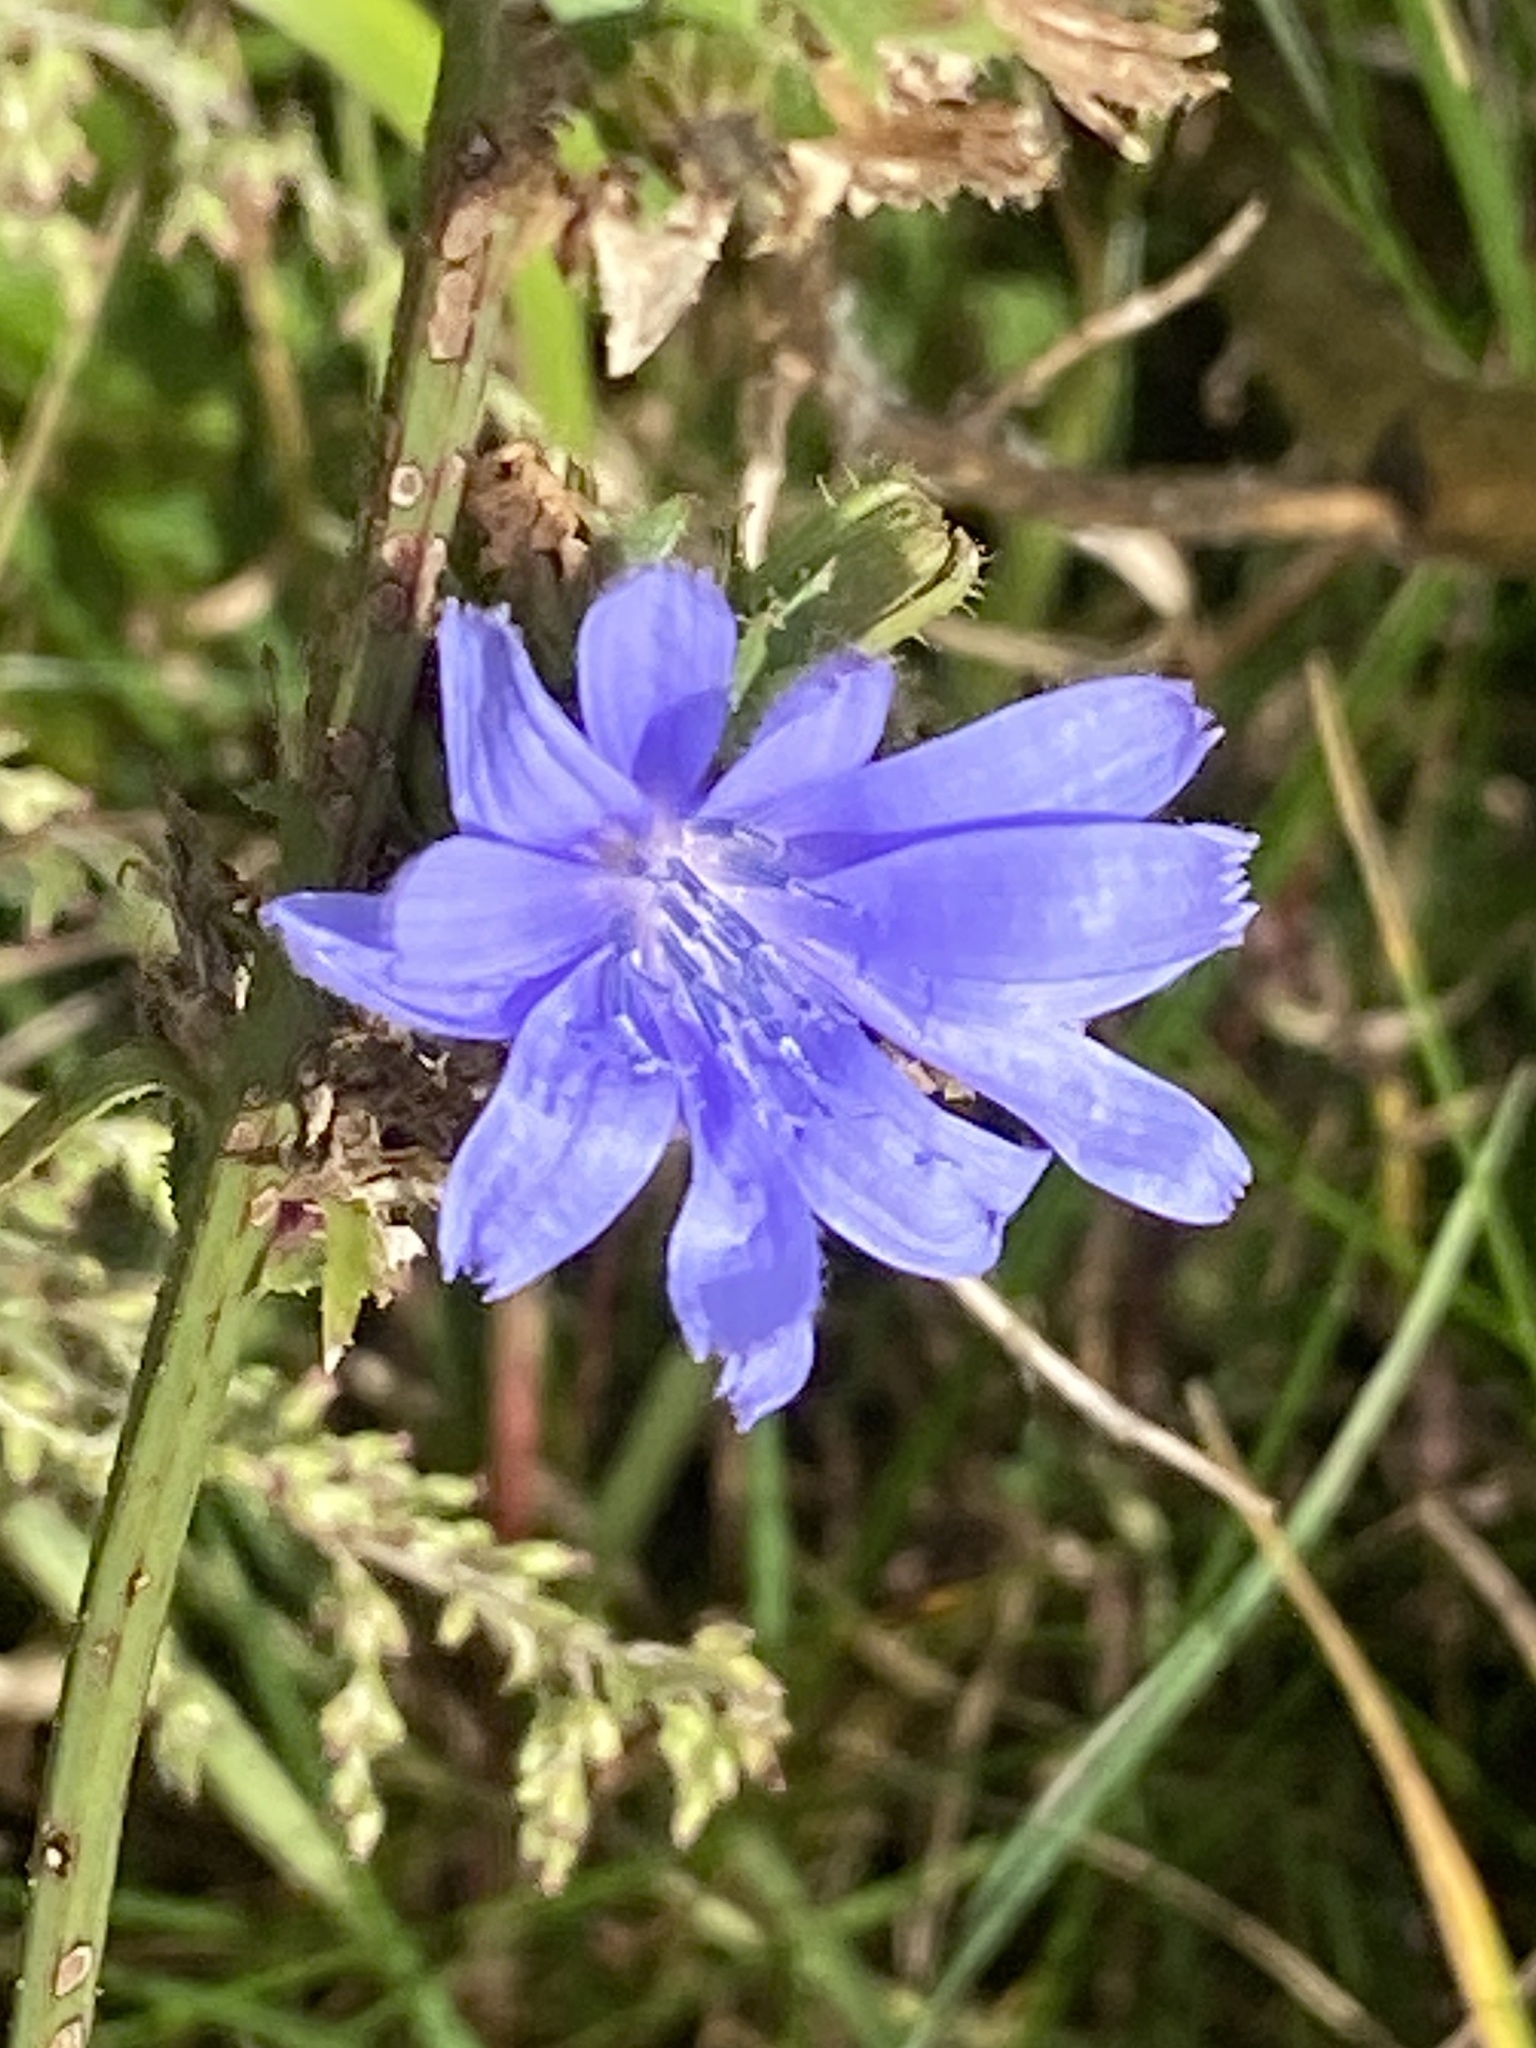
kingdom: Plantae
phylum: Tracheophyta
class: Magnoliopsida
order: Asterales
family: Asteraceae
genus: Cichorium
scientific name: Cichorium intybus
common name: Chicory
